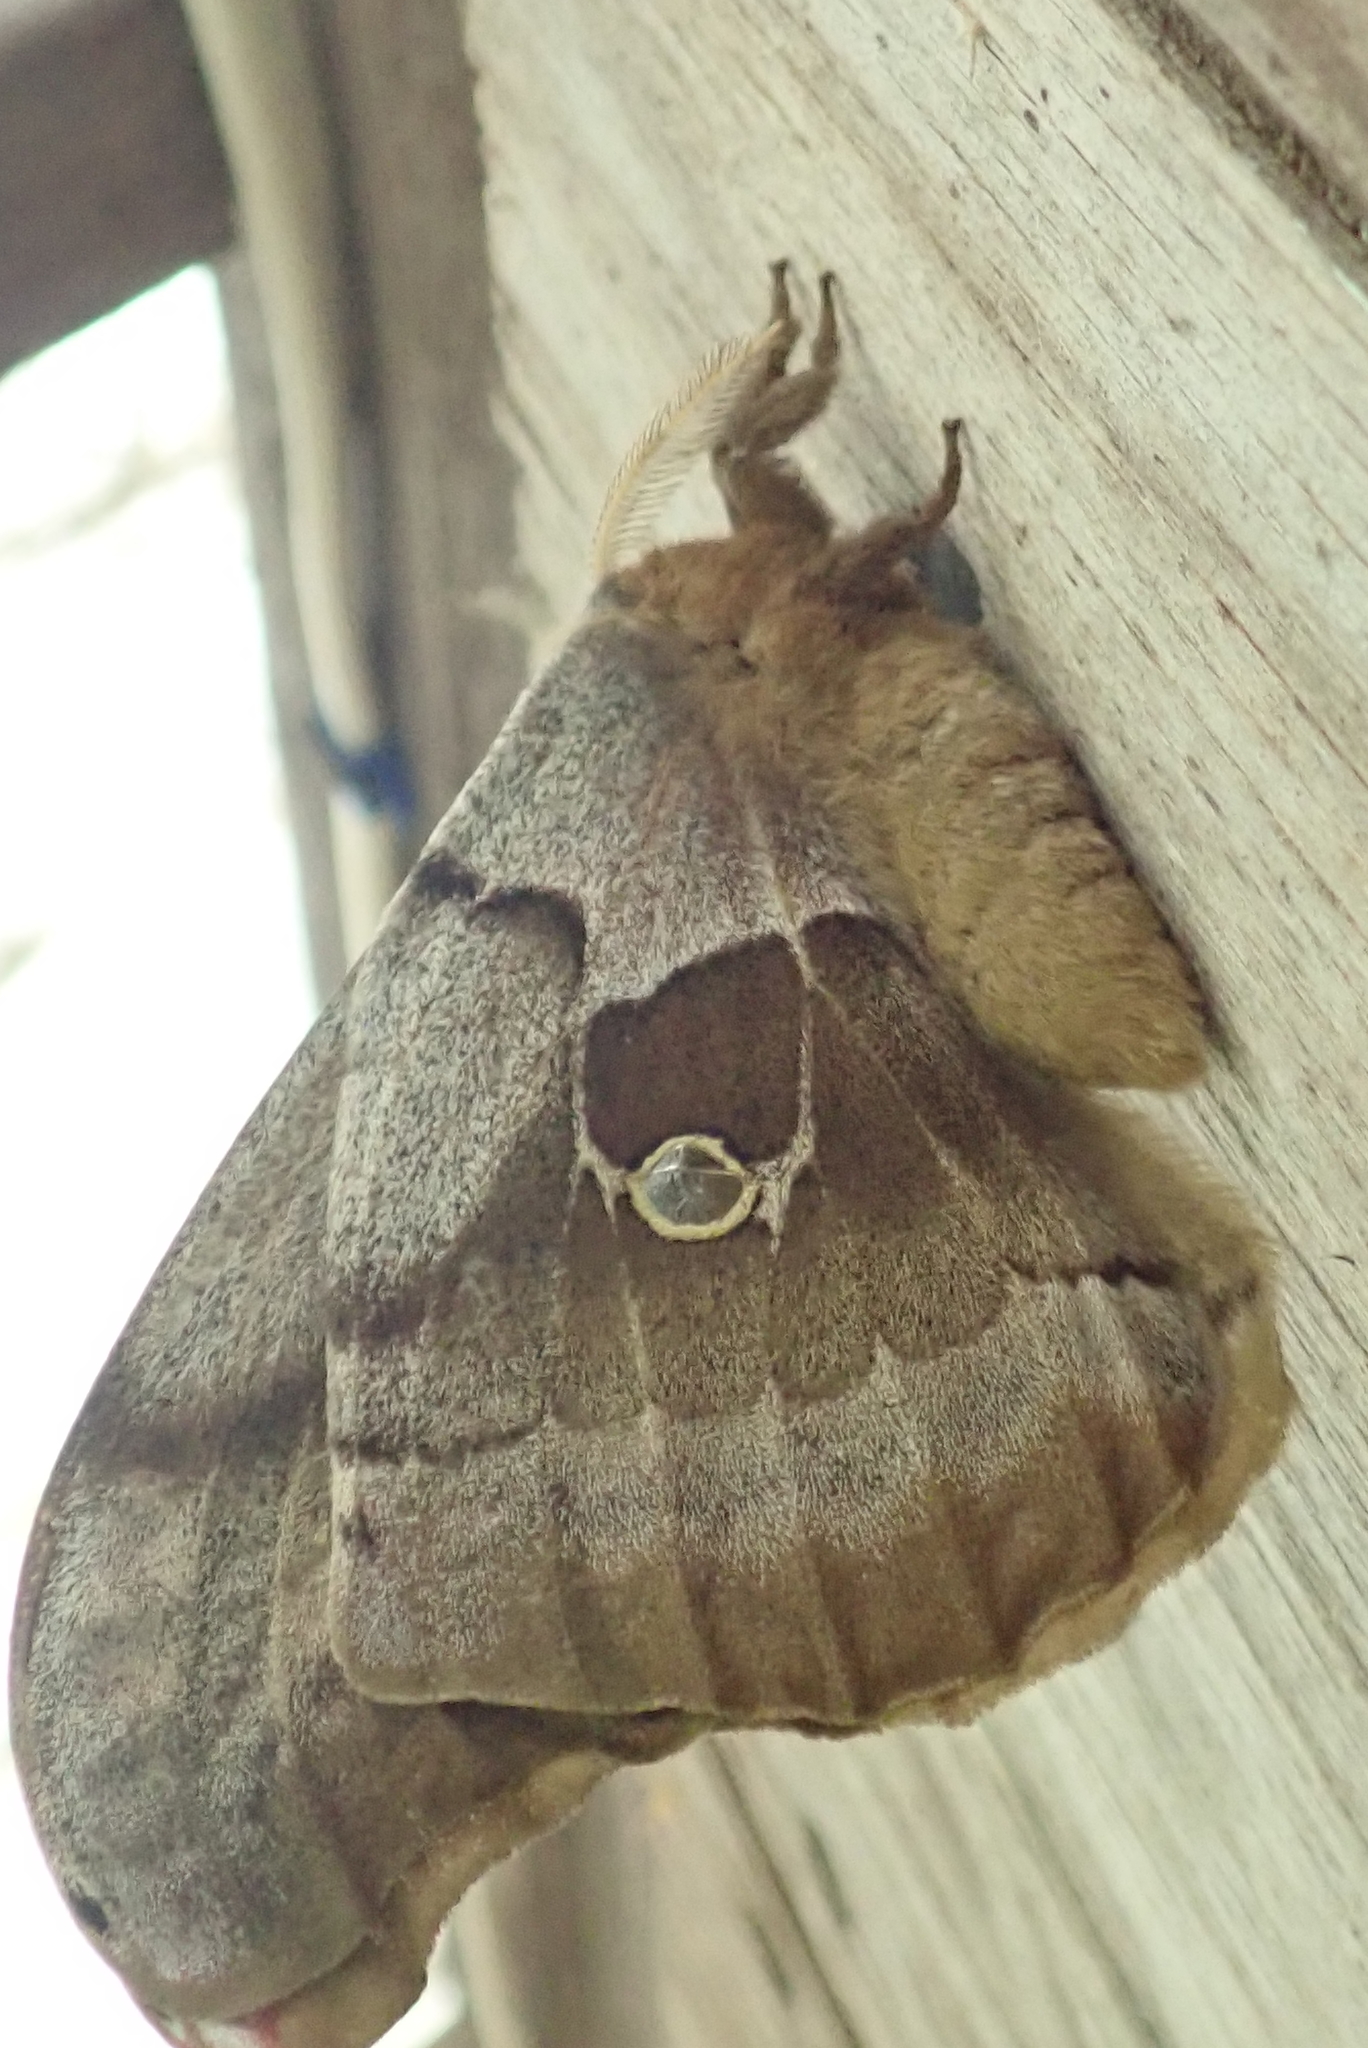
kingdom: Animalia
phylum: Arthropoda
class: Insecta
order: Lepidoptera
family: Saturniidae
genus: Antheraea
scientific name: Antheraea polyphemus
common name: Polyphemus moth
